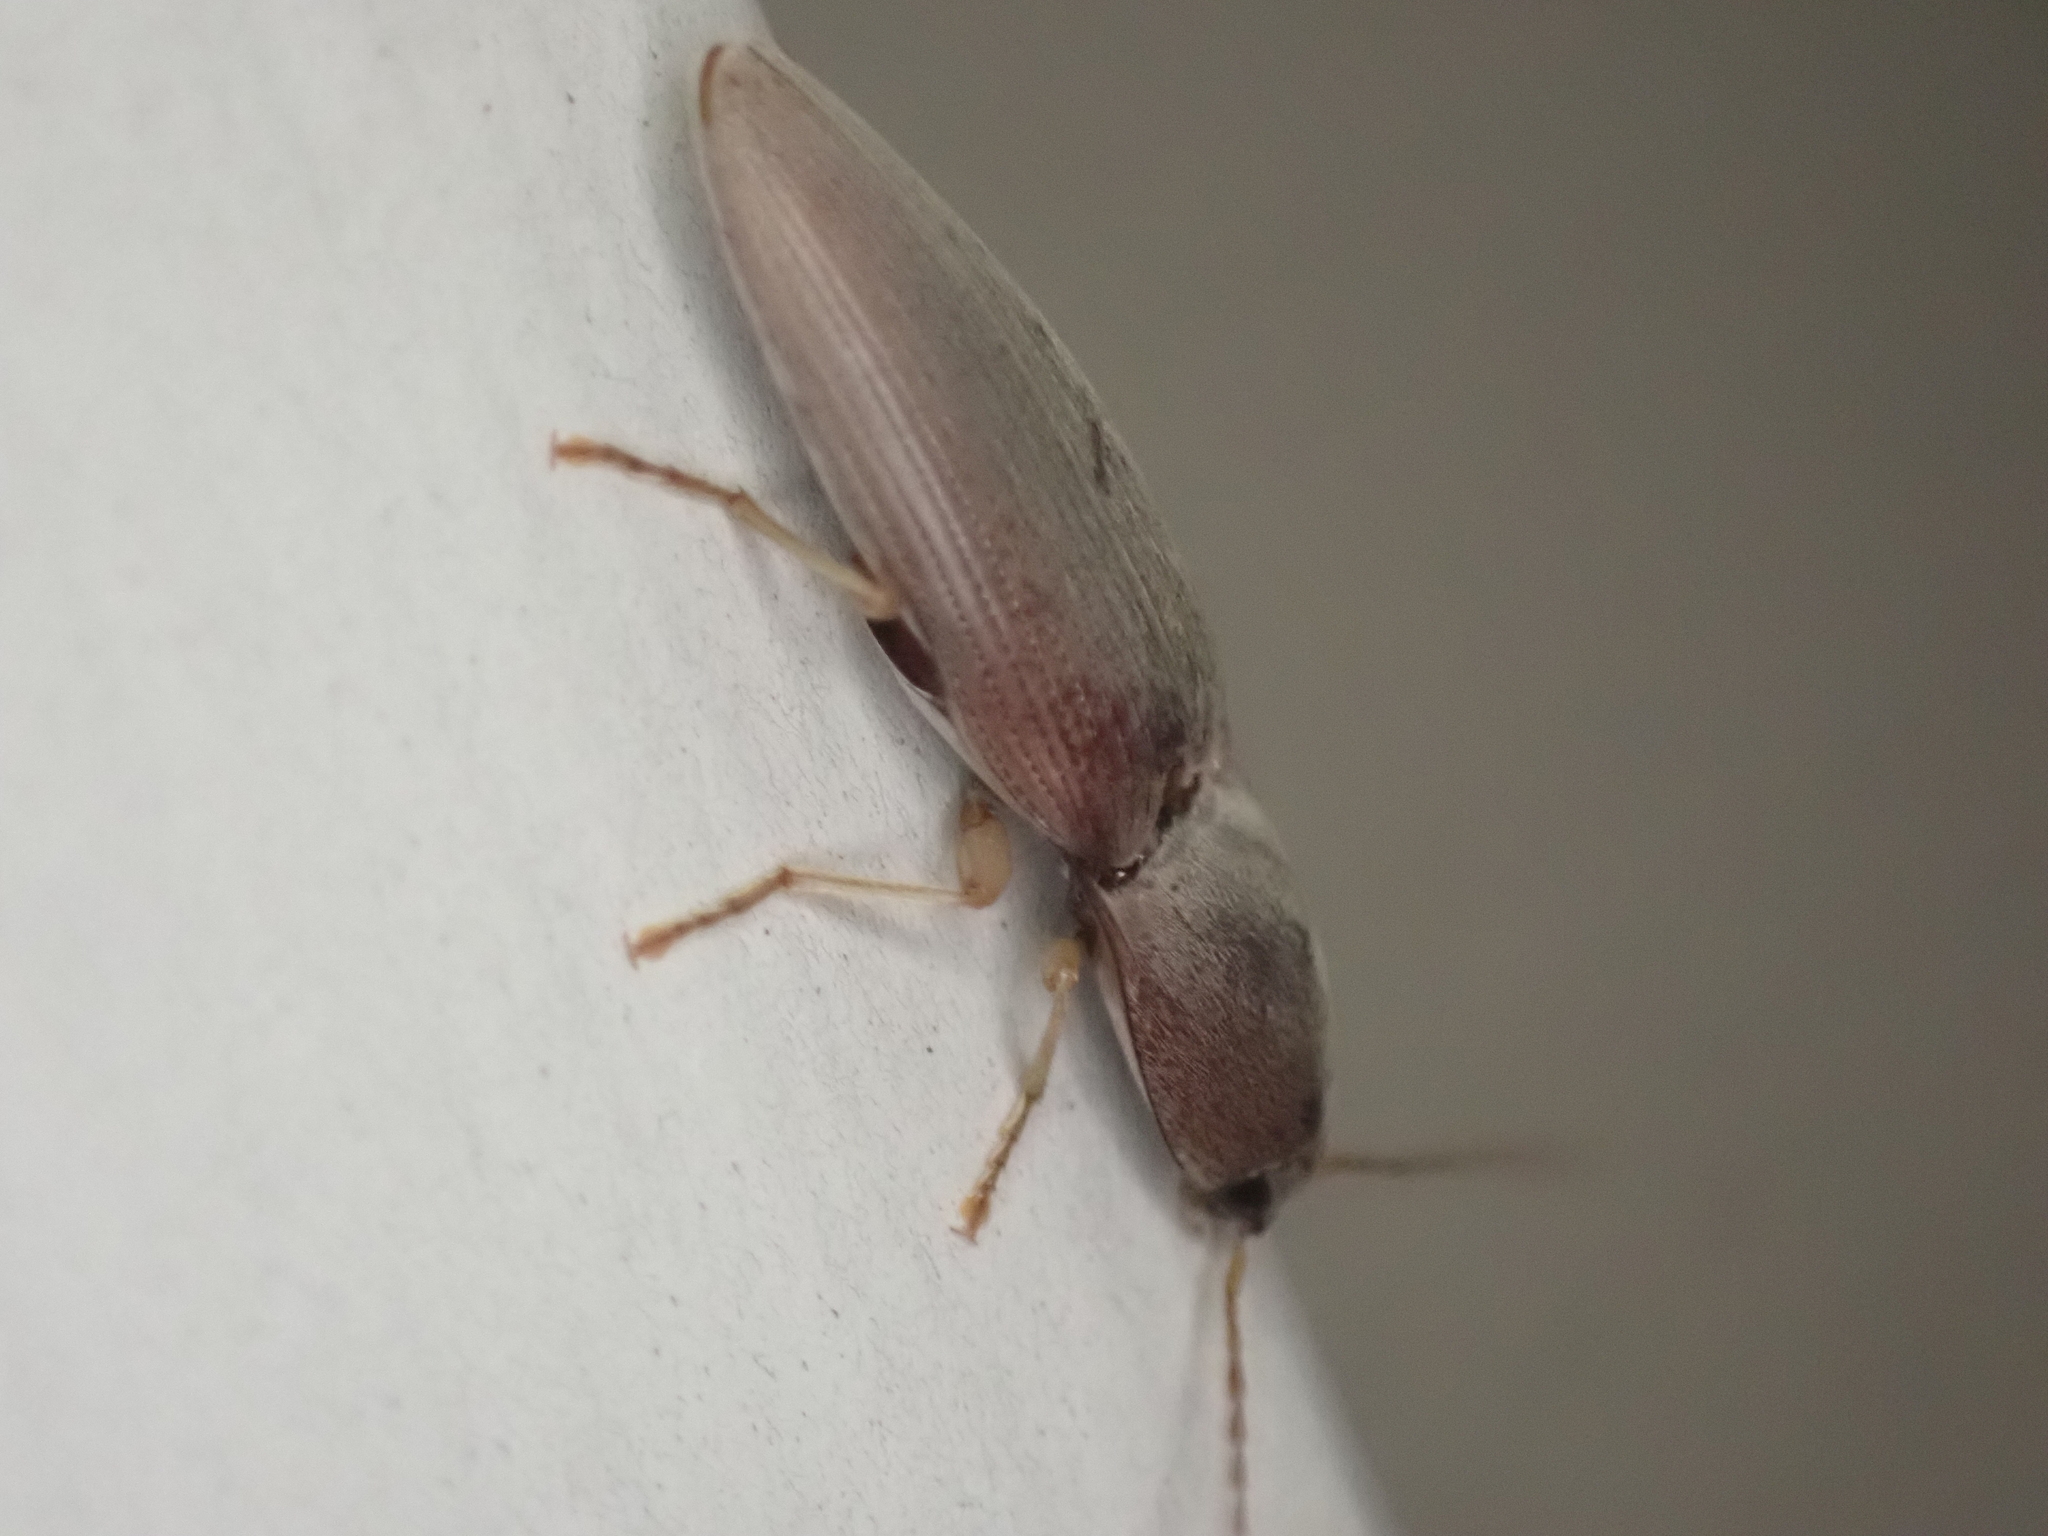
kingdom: Animalia
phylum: Arthropoda
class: Insecta
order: Coleoptera
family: Elateridae
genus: Monocrepidius
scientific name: Monocrepidius lividus
